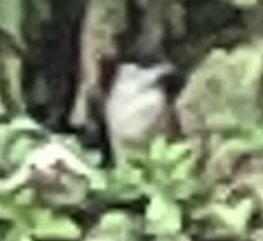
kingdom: Animalia
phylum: Chordata
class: Aves
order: Passeriformes
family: Sylviidae
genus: Sylvia
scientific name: Sylvia atricapilla
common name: Eurasian blackcap
